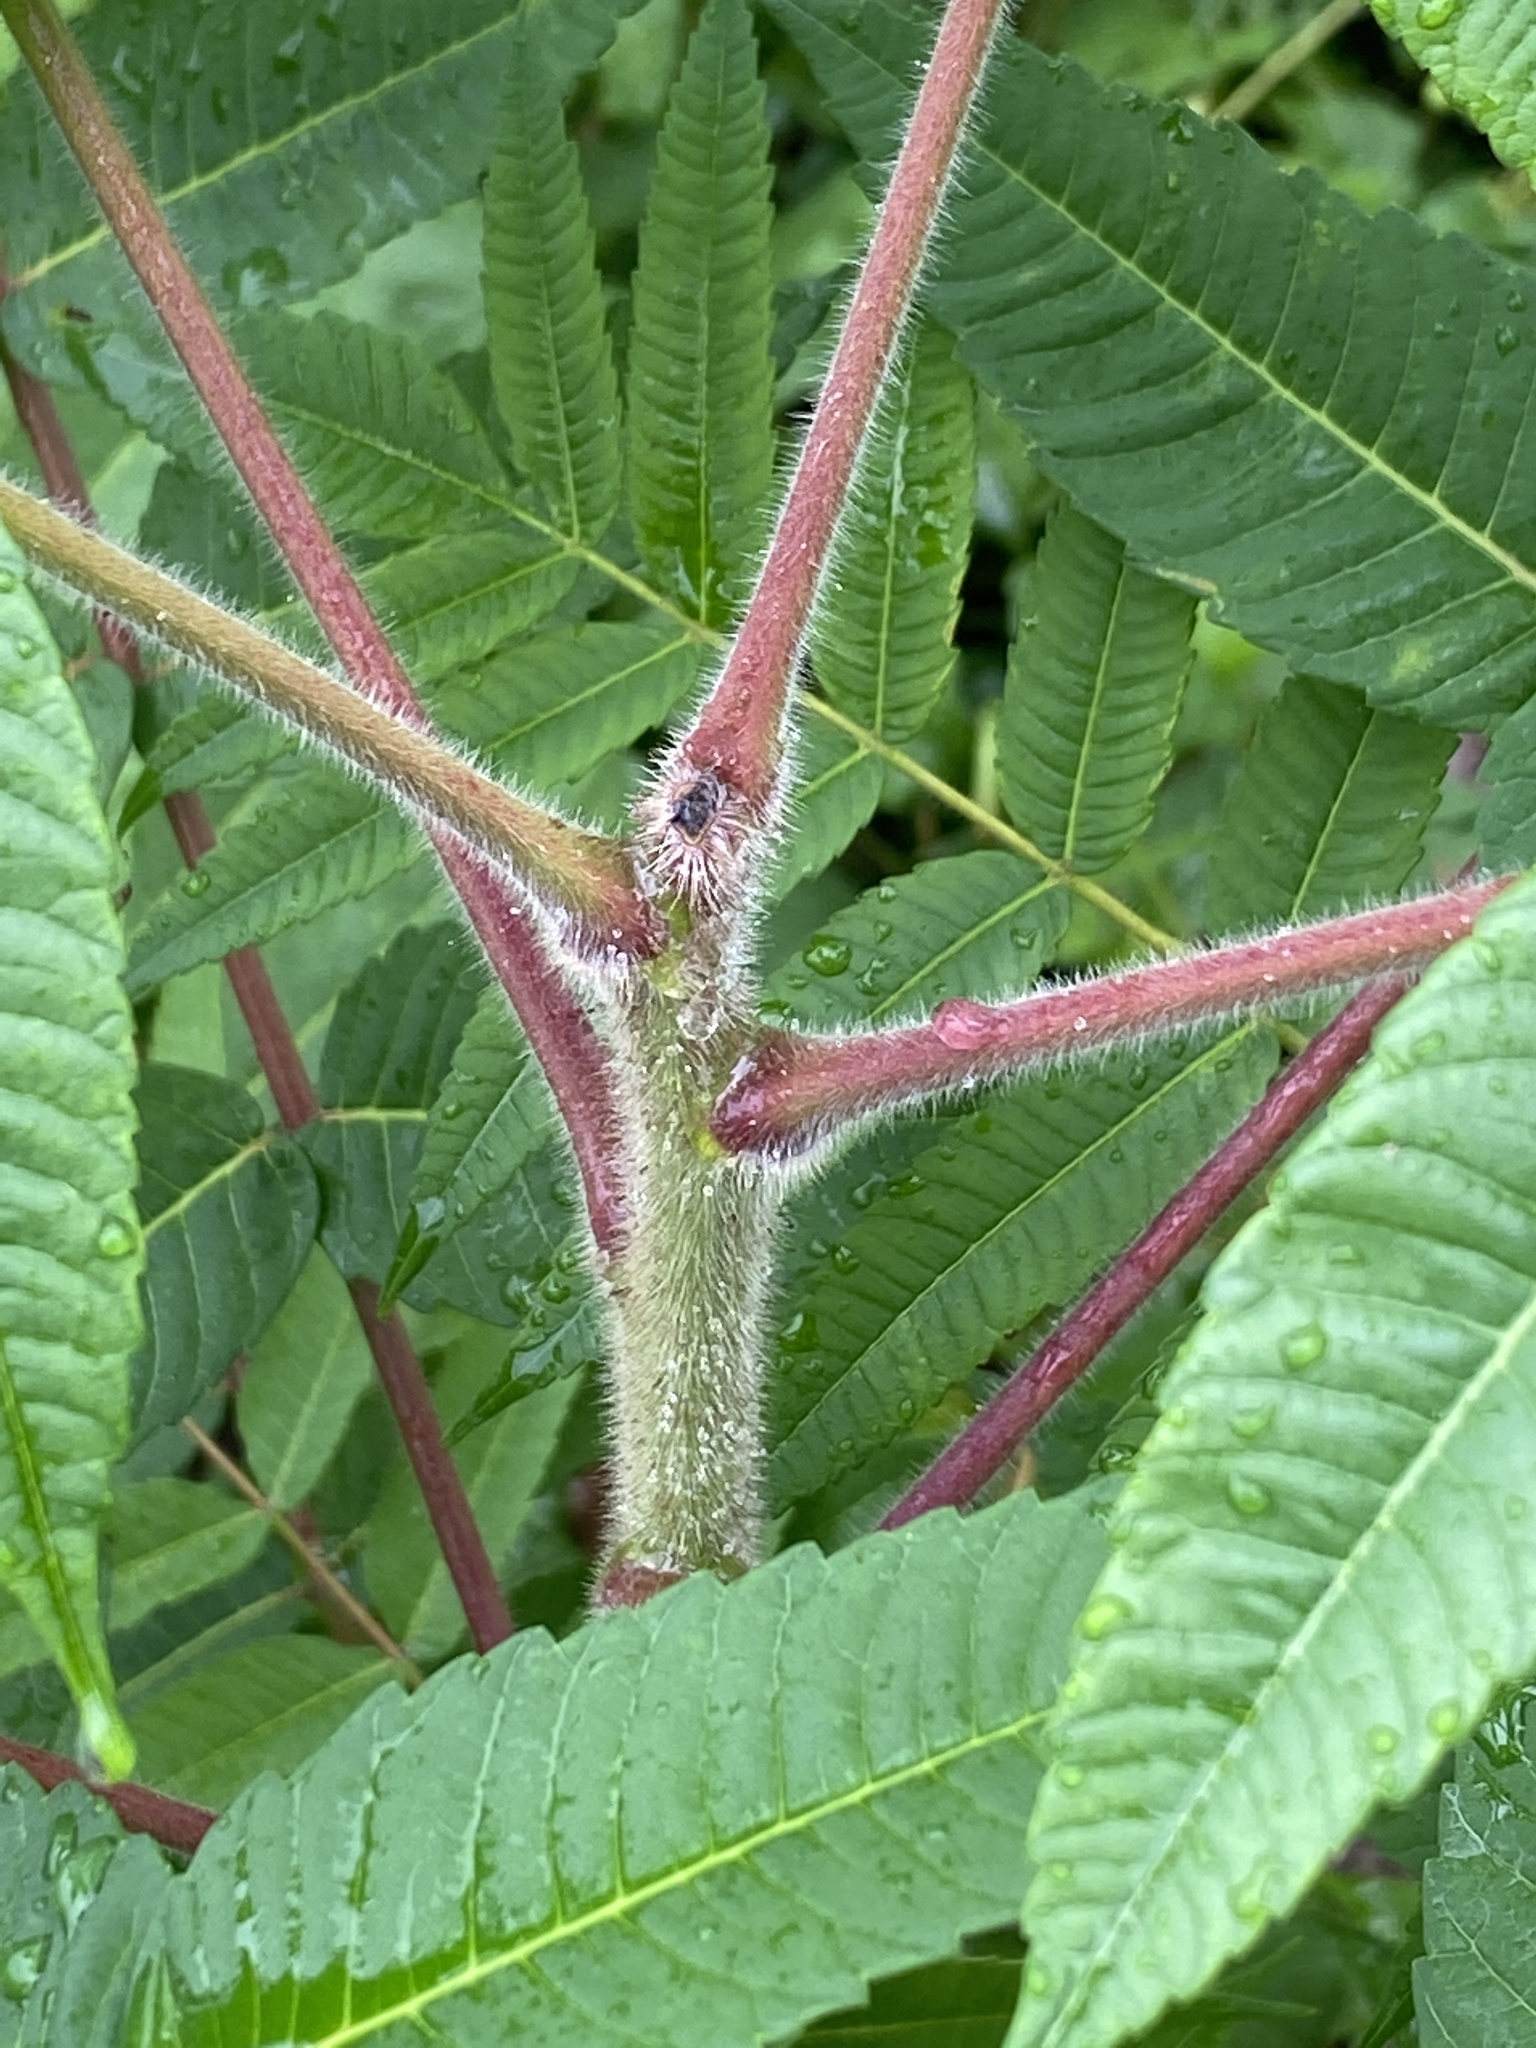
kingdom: Plantae
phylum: Tracheophyta
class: Magnoliopsida
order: Sapindales
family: Anacardiaceae
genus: Rhus
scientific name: Rhus typhina
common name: Staghorn sumac
